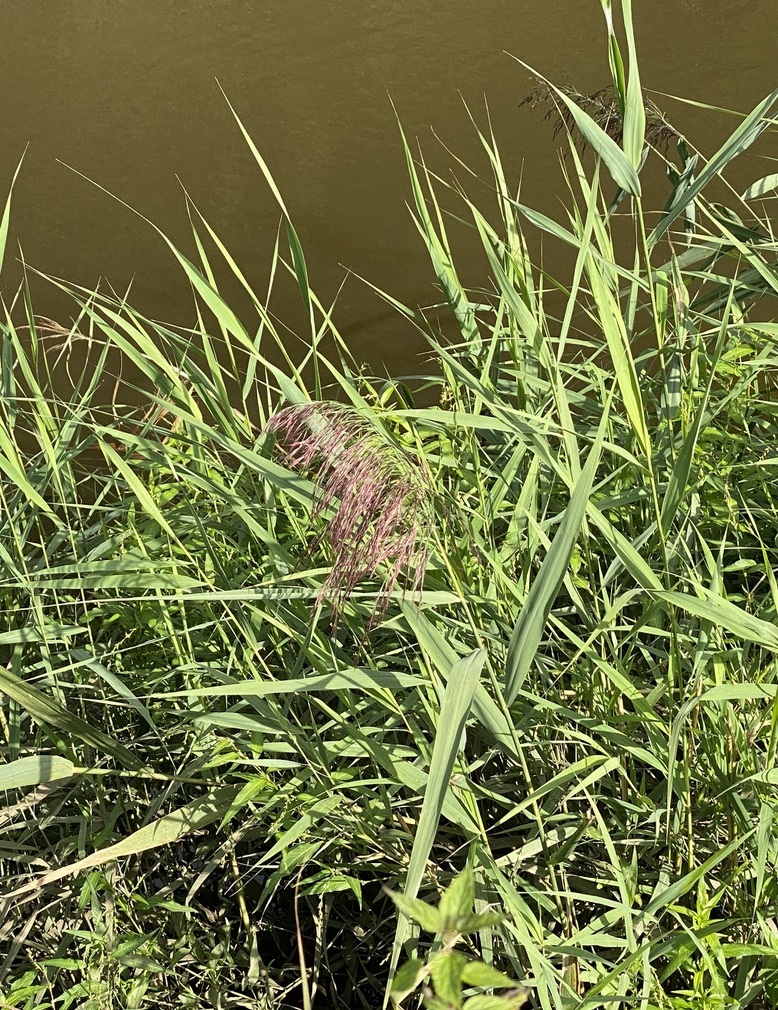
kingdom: Plantae
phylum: Tracheophyta
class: Liliopsida
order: Poales
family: Poaceae
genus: Phragmites
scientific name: Phragmites australis
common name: Common reed
